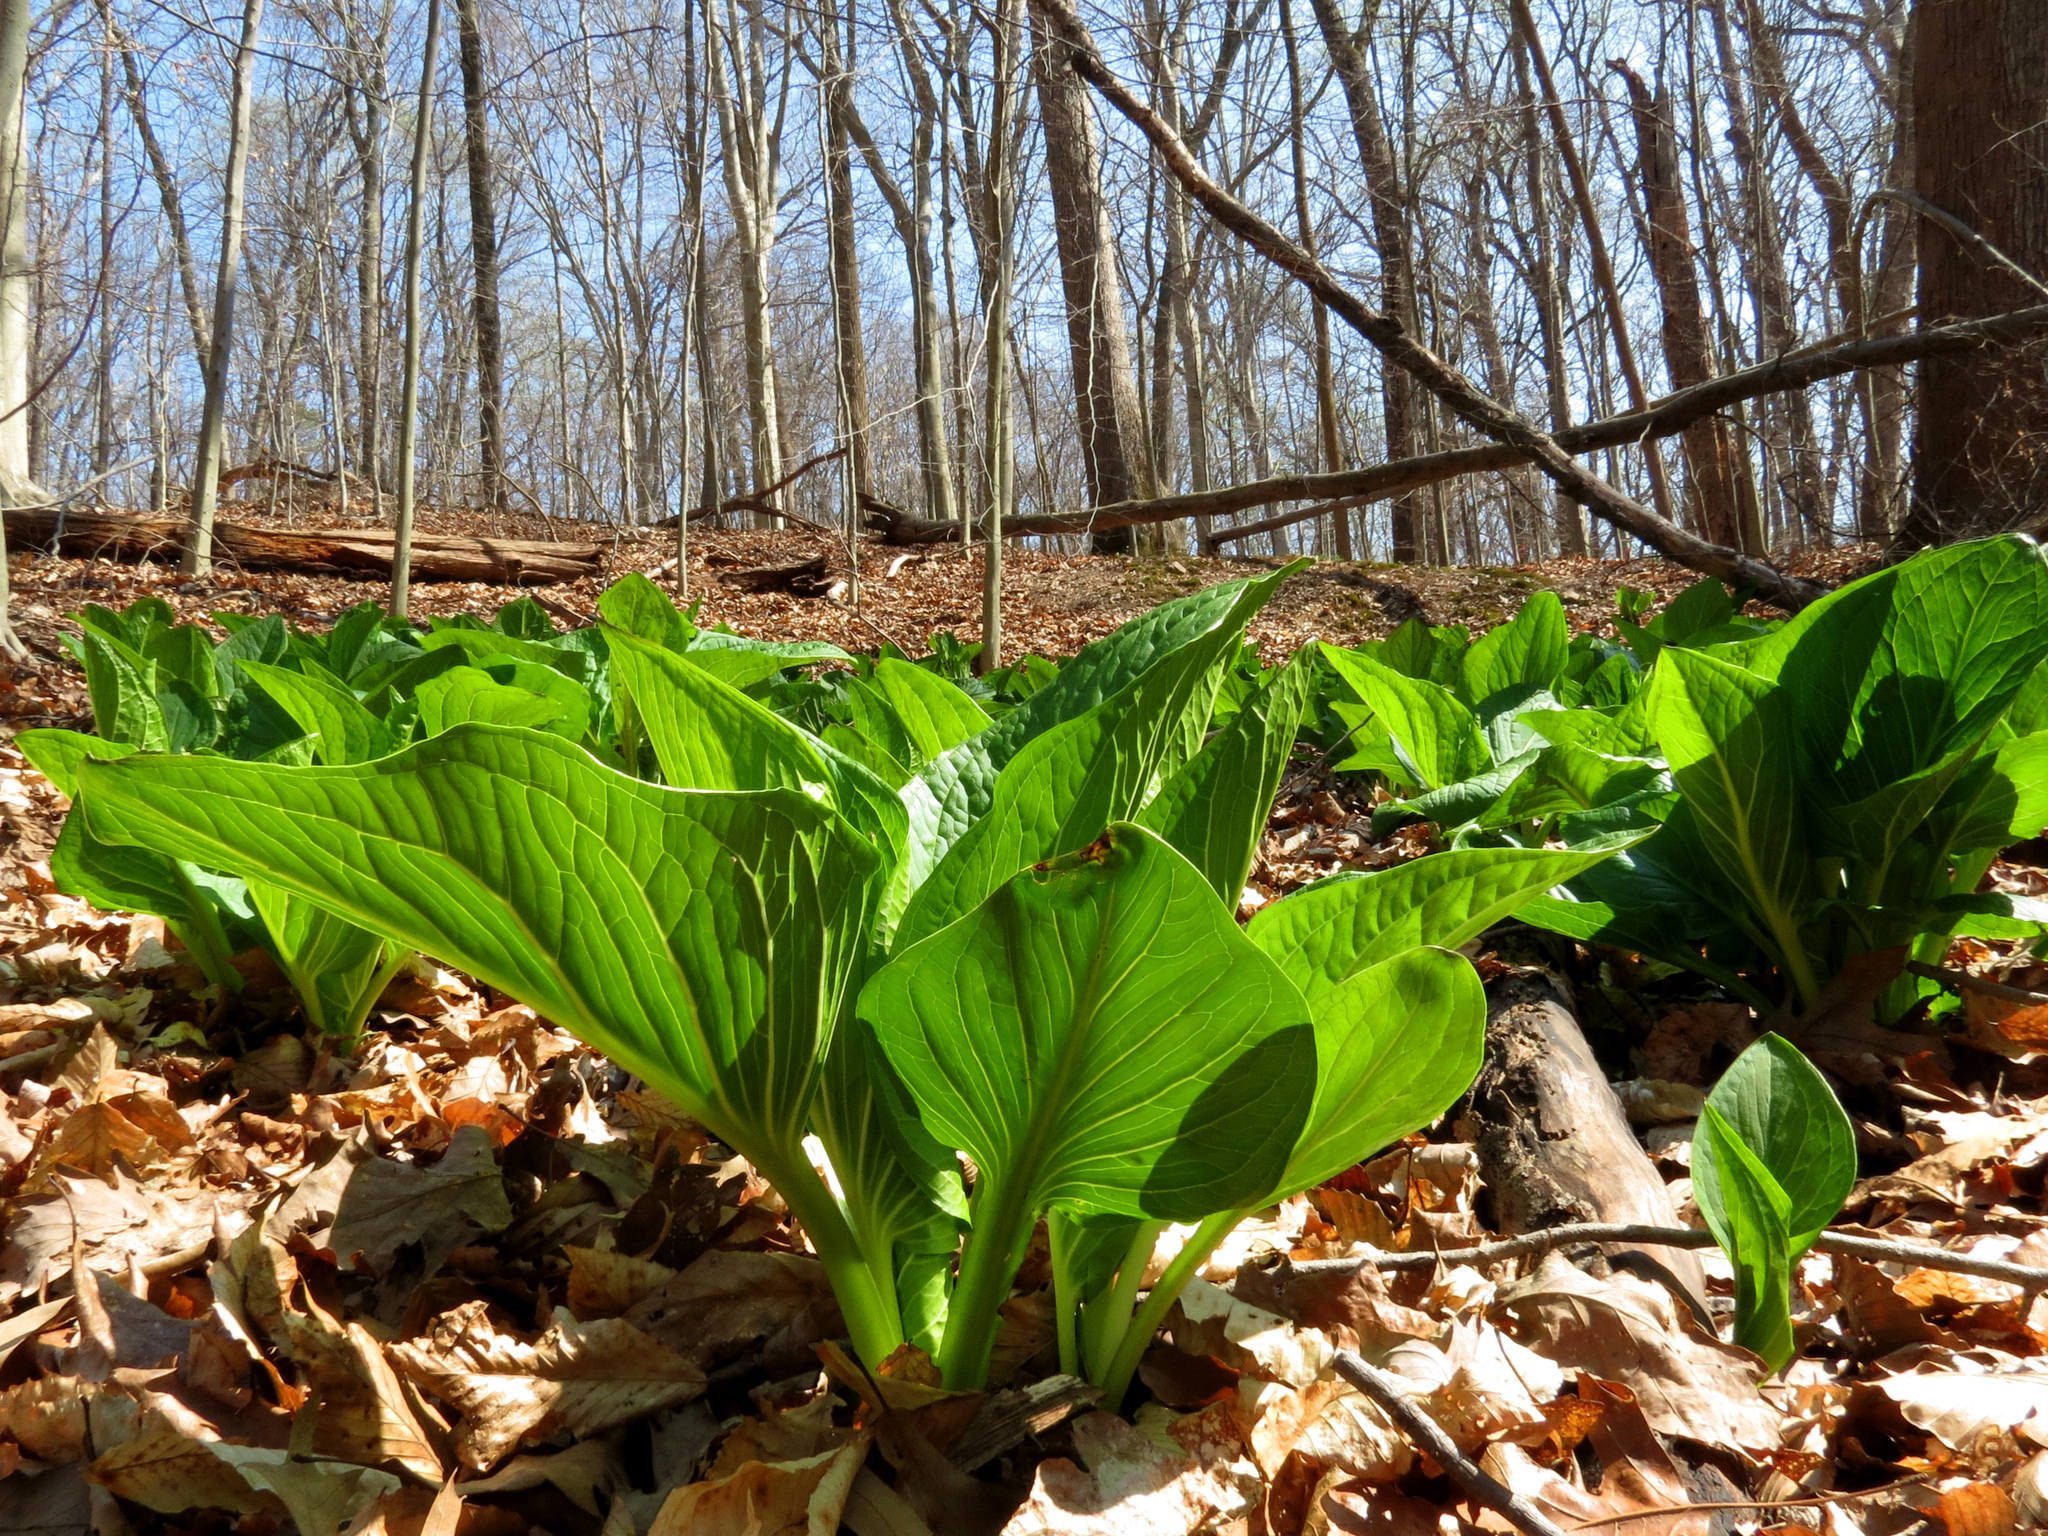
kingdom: Plantae
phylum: Tracheophyta
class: Liliopsida
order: Alismatales
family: Araceae
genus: Symplocarpus
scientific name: Symplocarpus foetidus
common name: Eastern skunk cabbage
